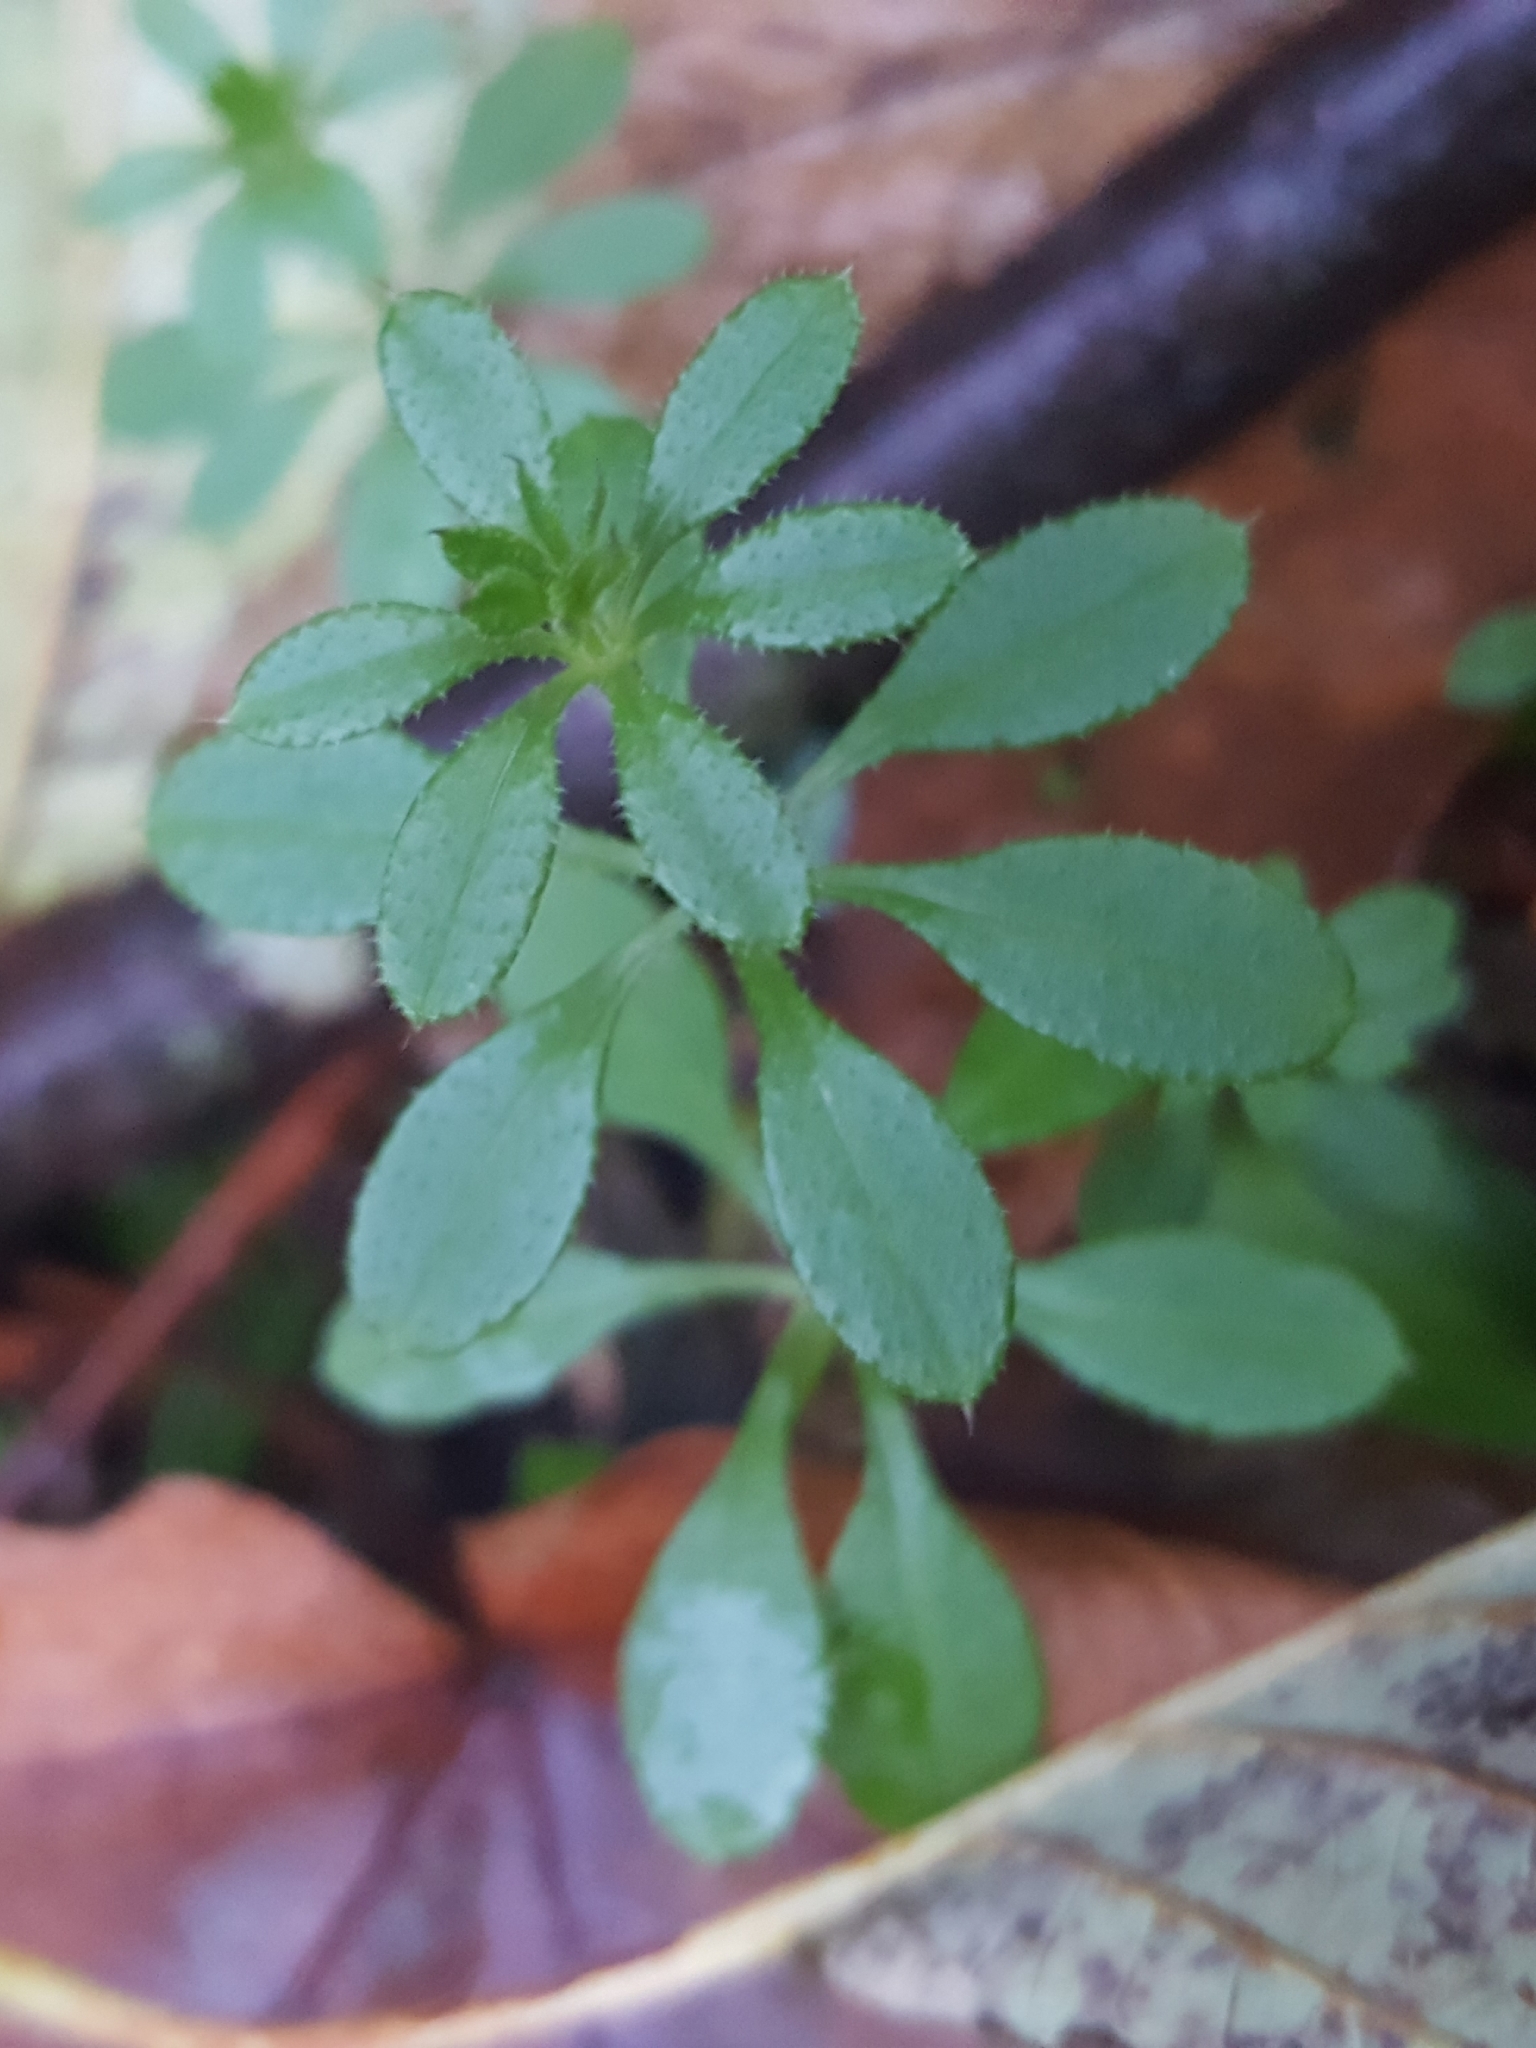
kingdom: Plantae
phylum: Tracheophyta
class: Magnoliopsida
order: Gentianales
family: Rubiaceae
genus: Galium
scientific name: Galium aparine
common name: Cleavers
